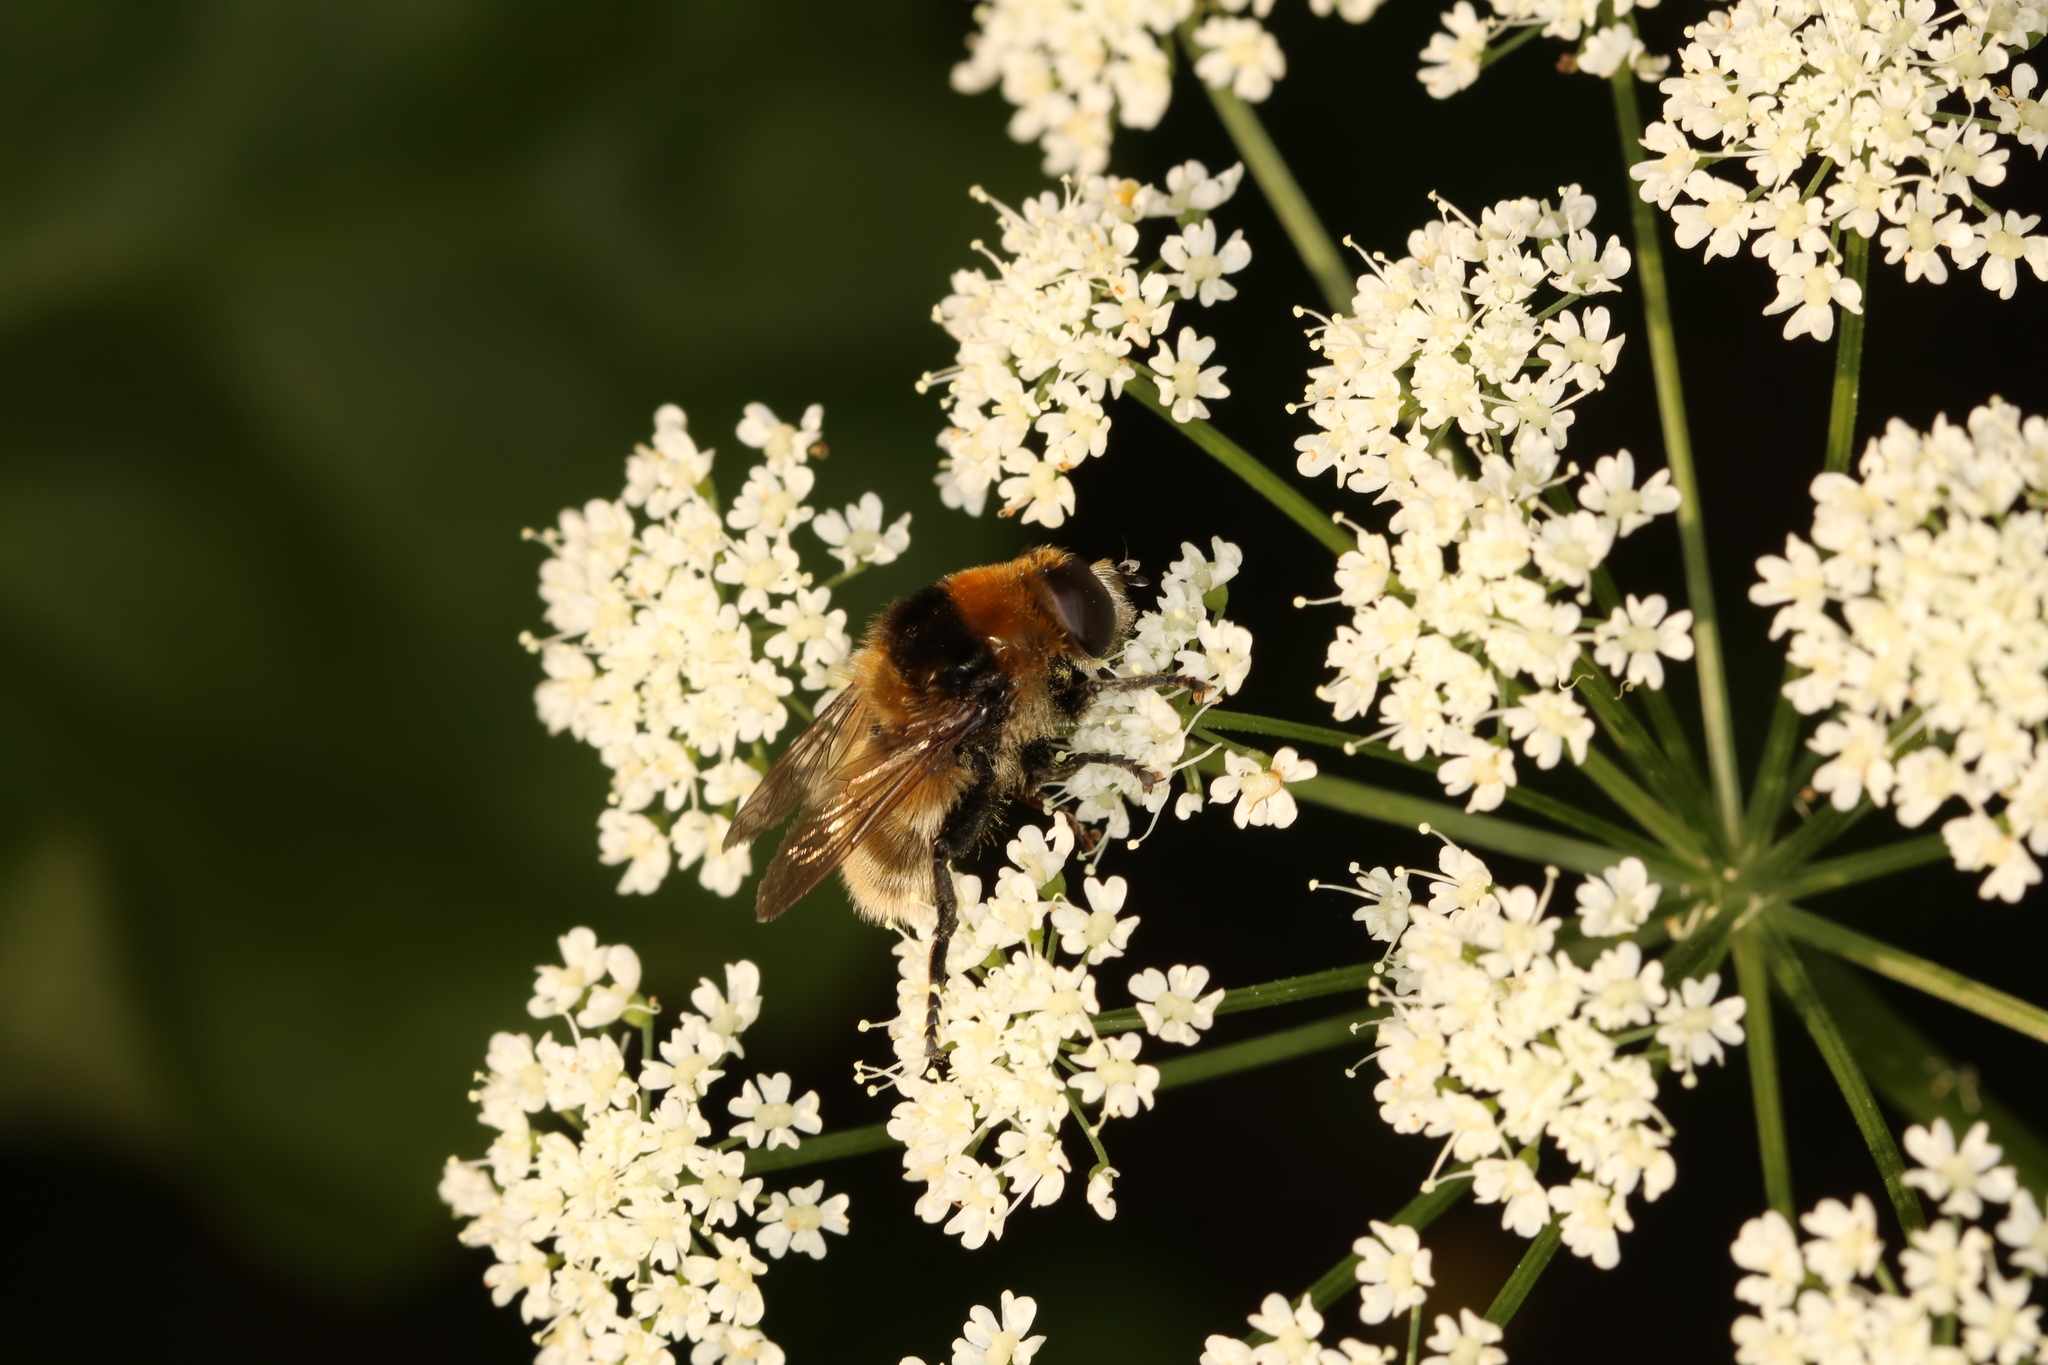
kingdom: Animalia
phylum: Arthropoda
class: Insecta
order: Diptera
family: Syrphidae
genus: Merodon
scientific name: Merodon equestris
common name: Greater bulb-fly
